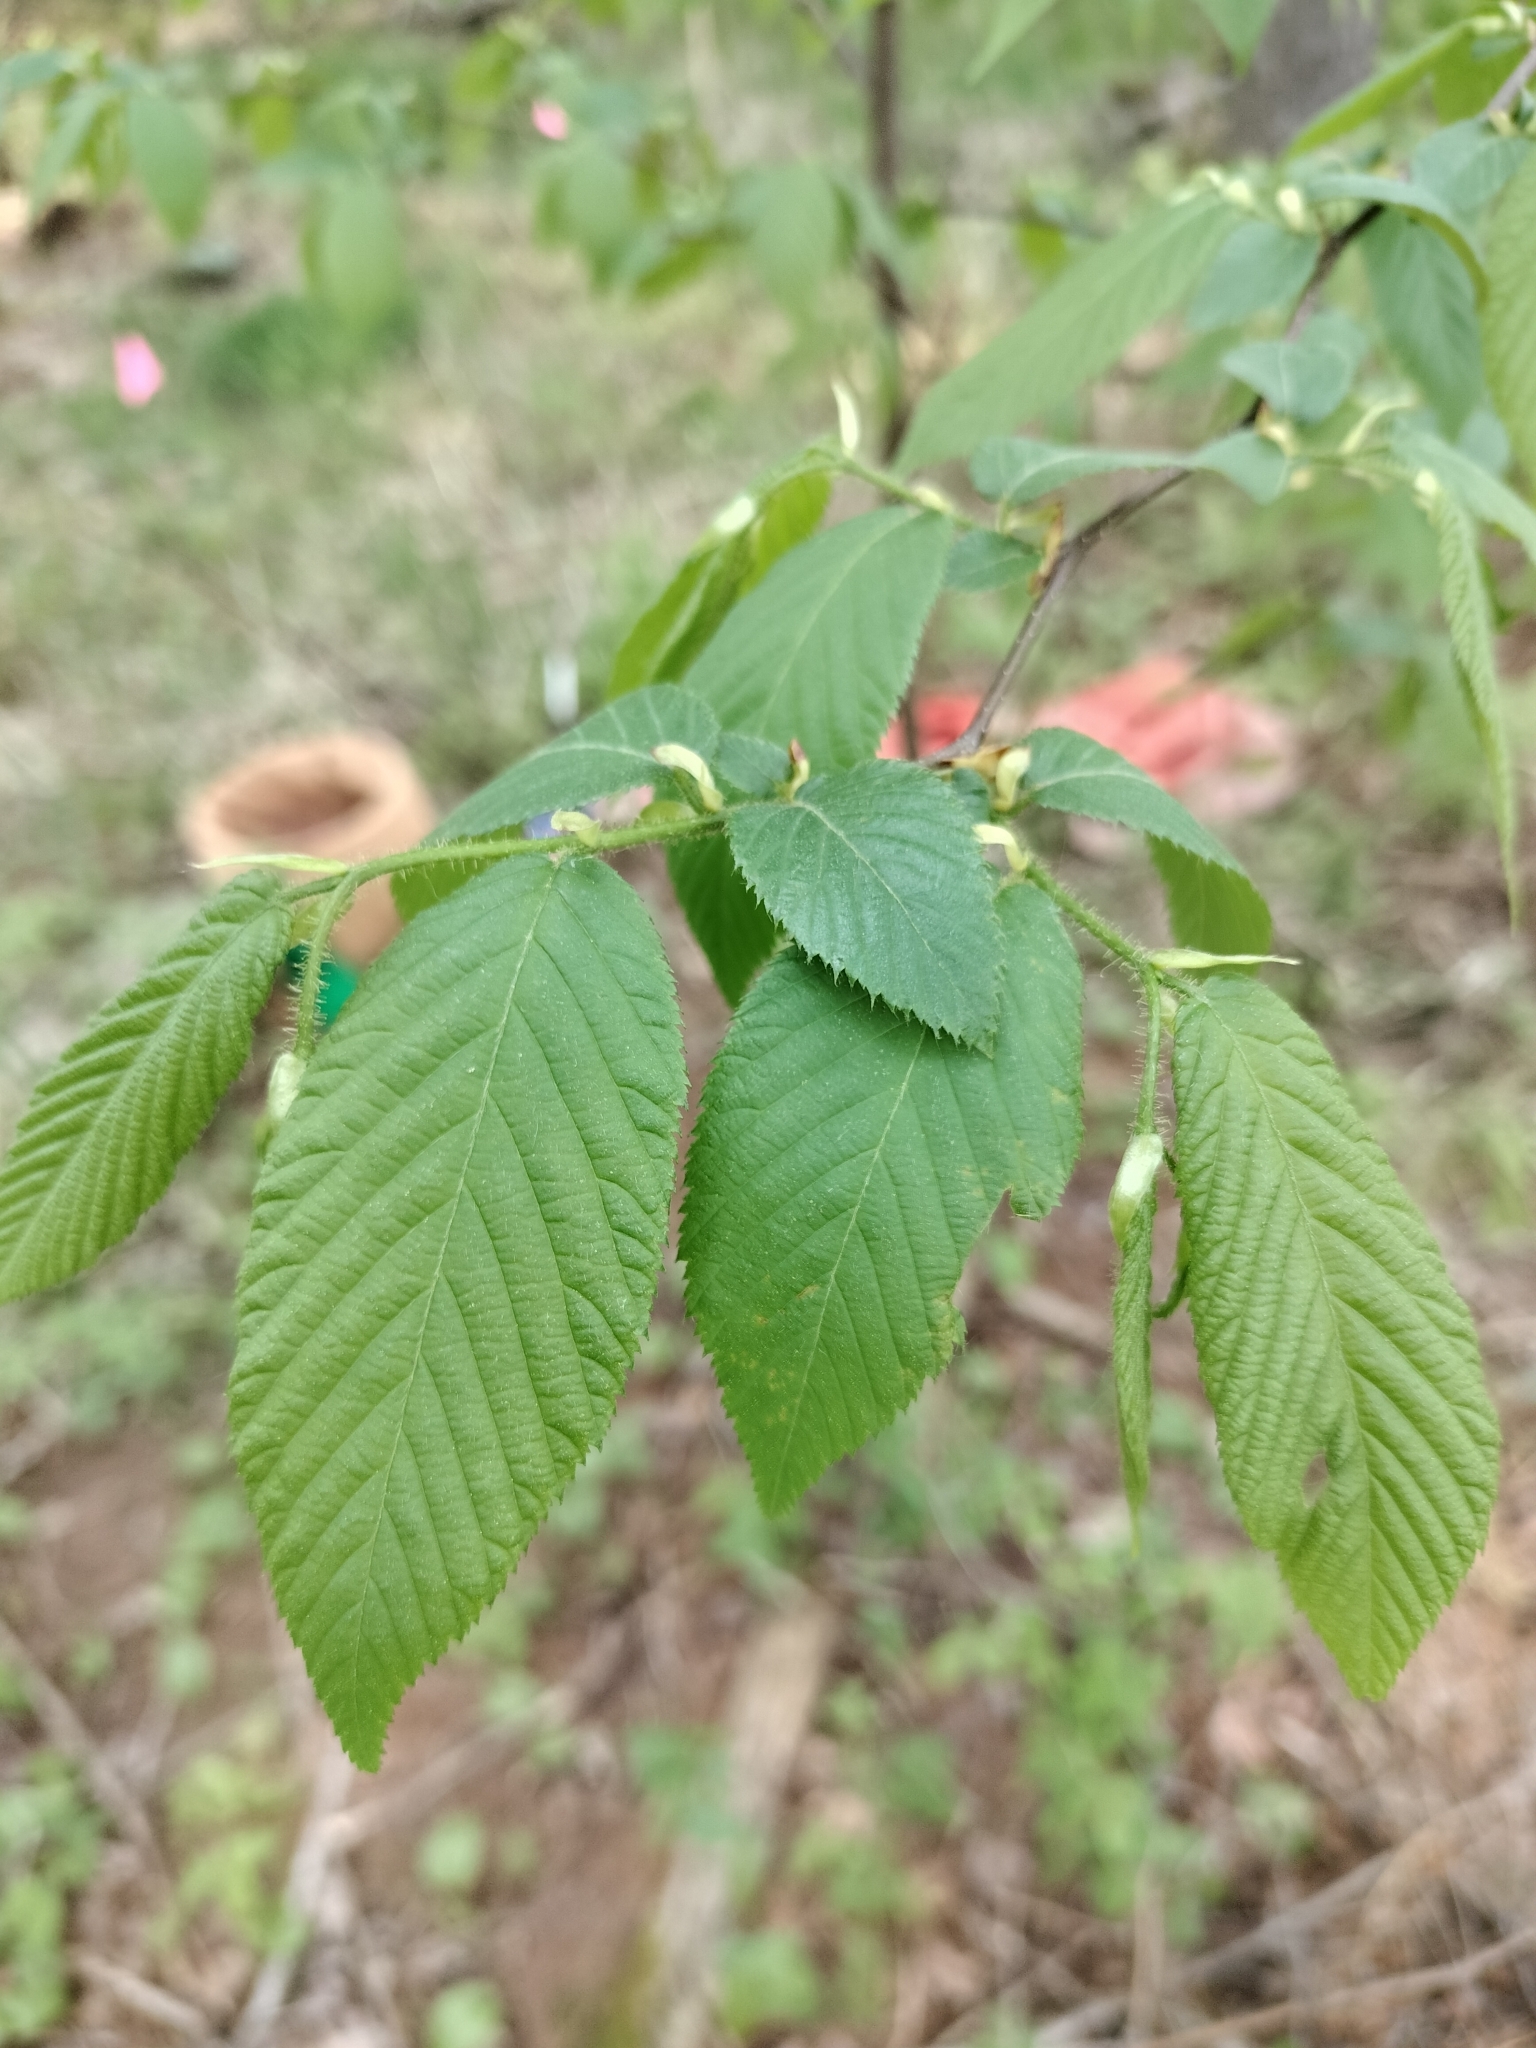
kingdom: Plantae
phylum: Tracheophyta
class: Magnoliopsida
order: Fagales
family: Betulaceae
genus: Ostrya
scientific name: Ostrya virginiana
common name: Ironwood
